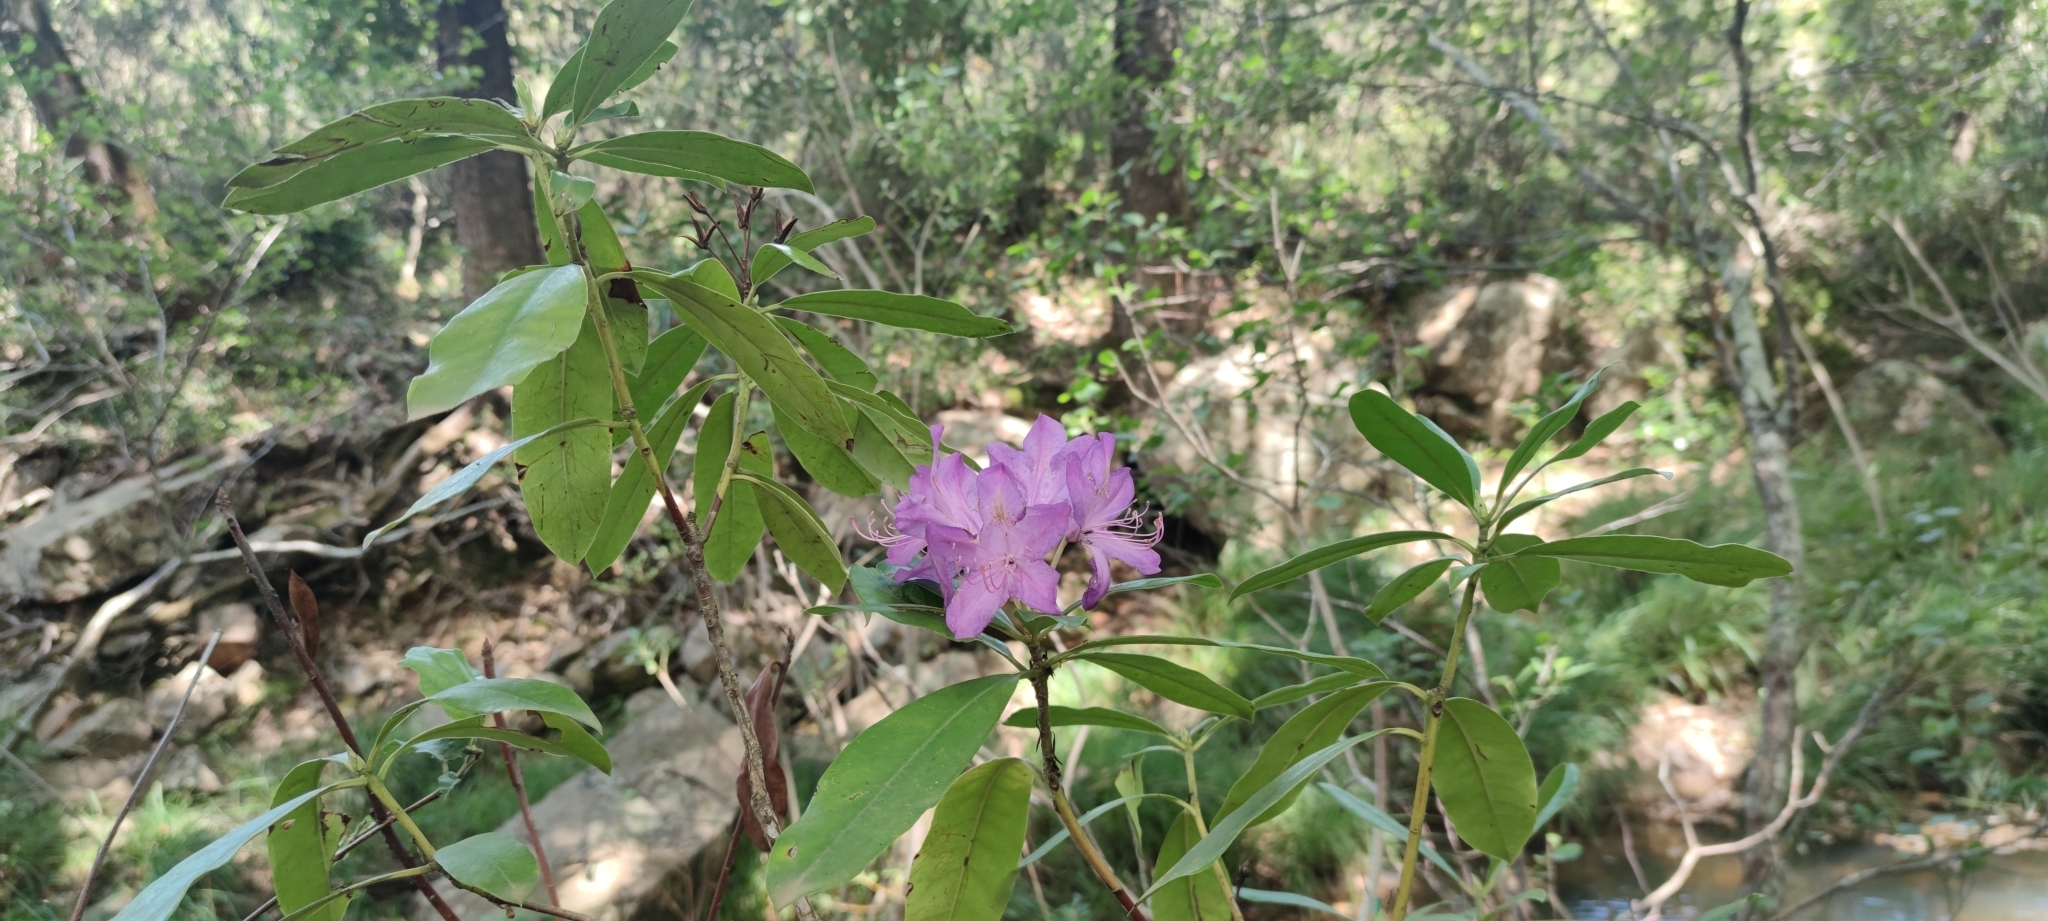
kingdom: Plantae
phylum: Tracheophyta
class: Magnoliopsida
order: Ericales
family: Ericaceae
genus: Rhododendron
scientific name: Rhododendron ponticum
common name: Rhododendron
